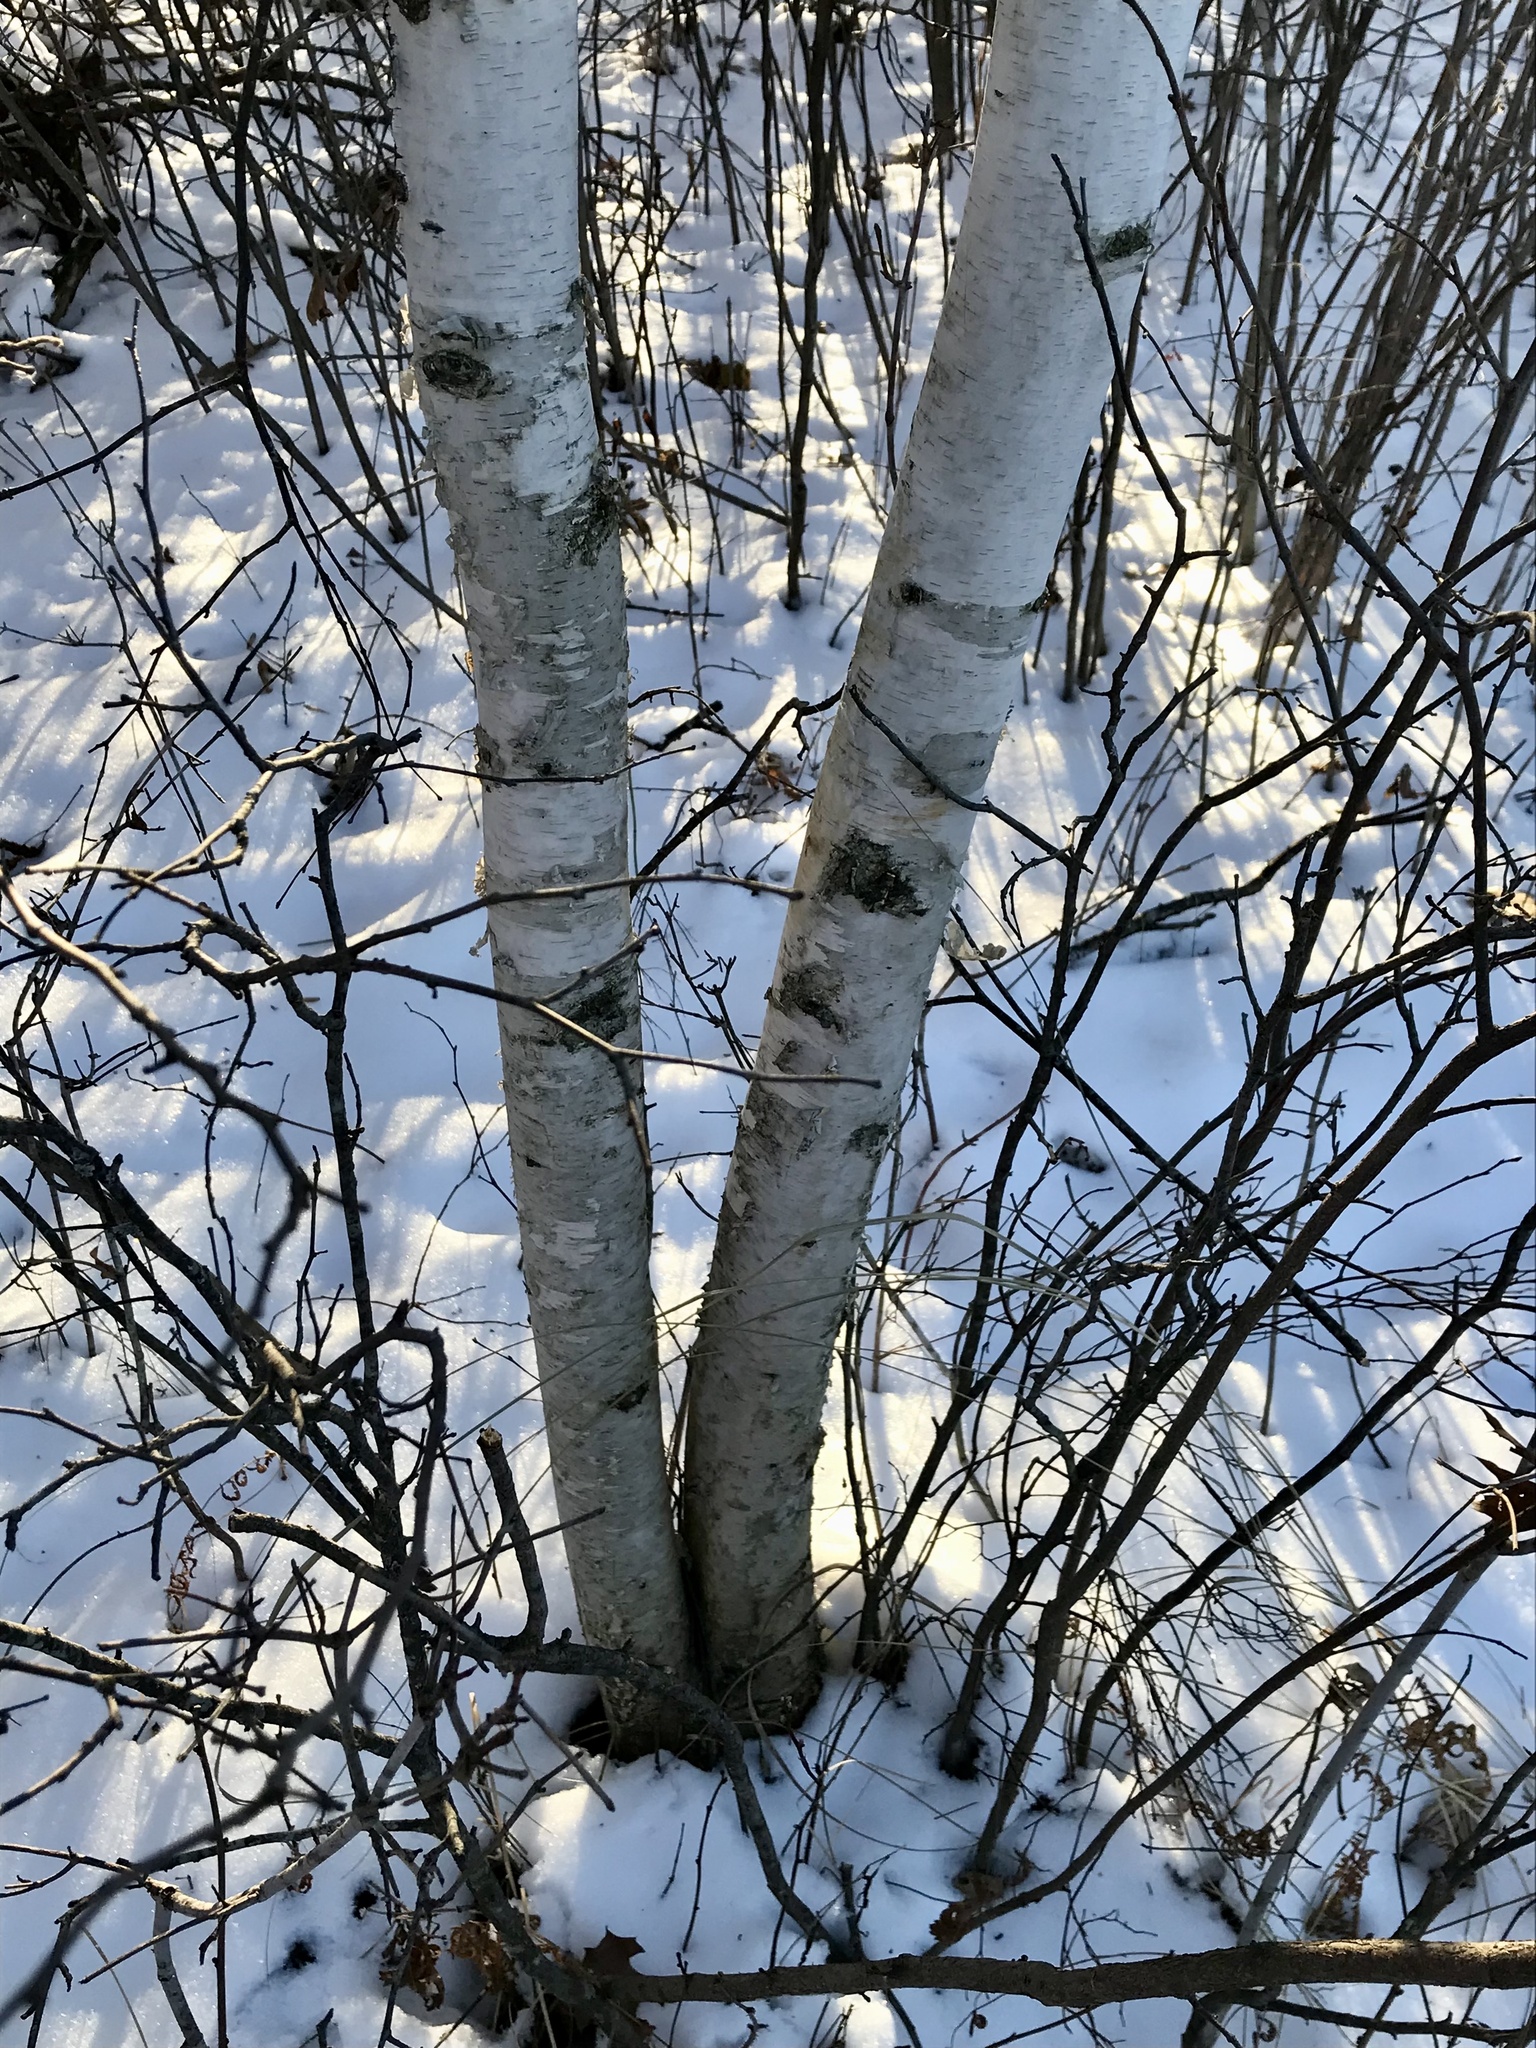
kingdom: Plantae
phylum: Tracheophyta
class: Magnoliopsida
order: Fagales
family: Betulaceae
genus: Betula
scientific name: Betula papyrifera
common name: Paper birch
